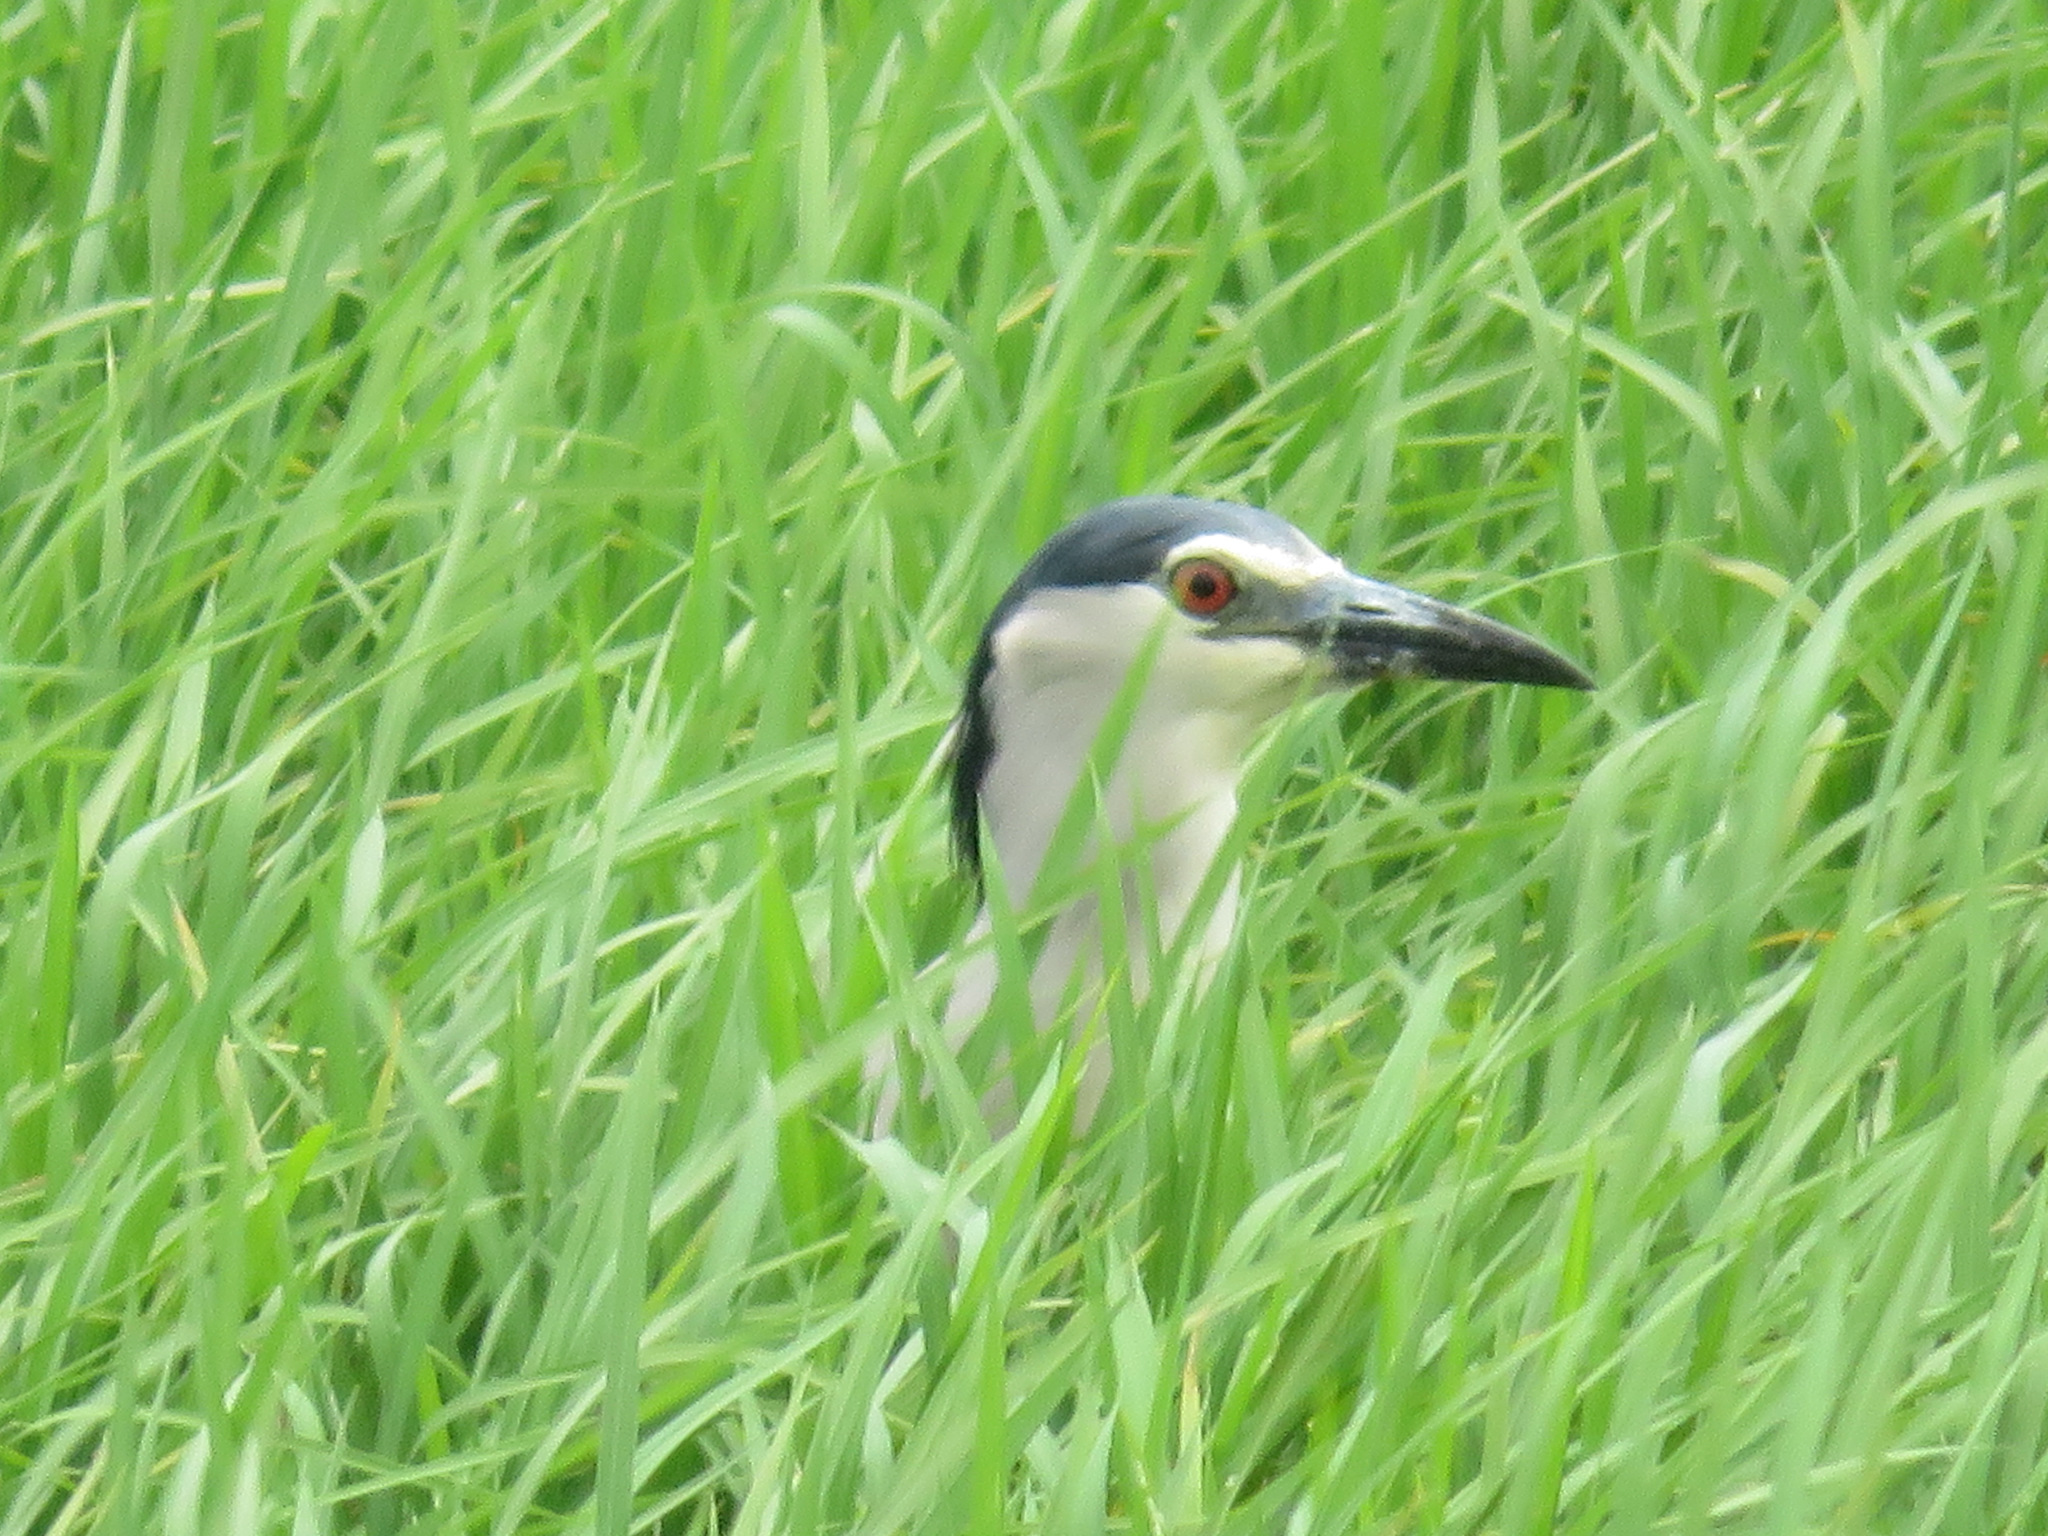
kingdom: Animalia
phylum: Chordata
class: Aves
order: Pelecaniformes
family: Ardeidae
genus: Nycticorax
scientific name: Nycticorax nycticorax
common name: Black-crowned night heron
